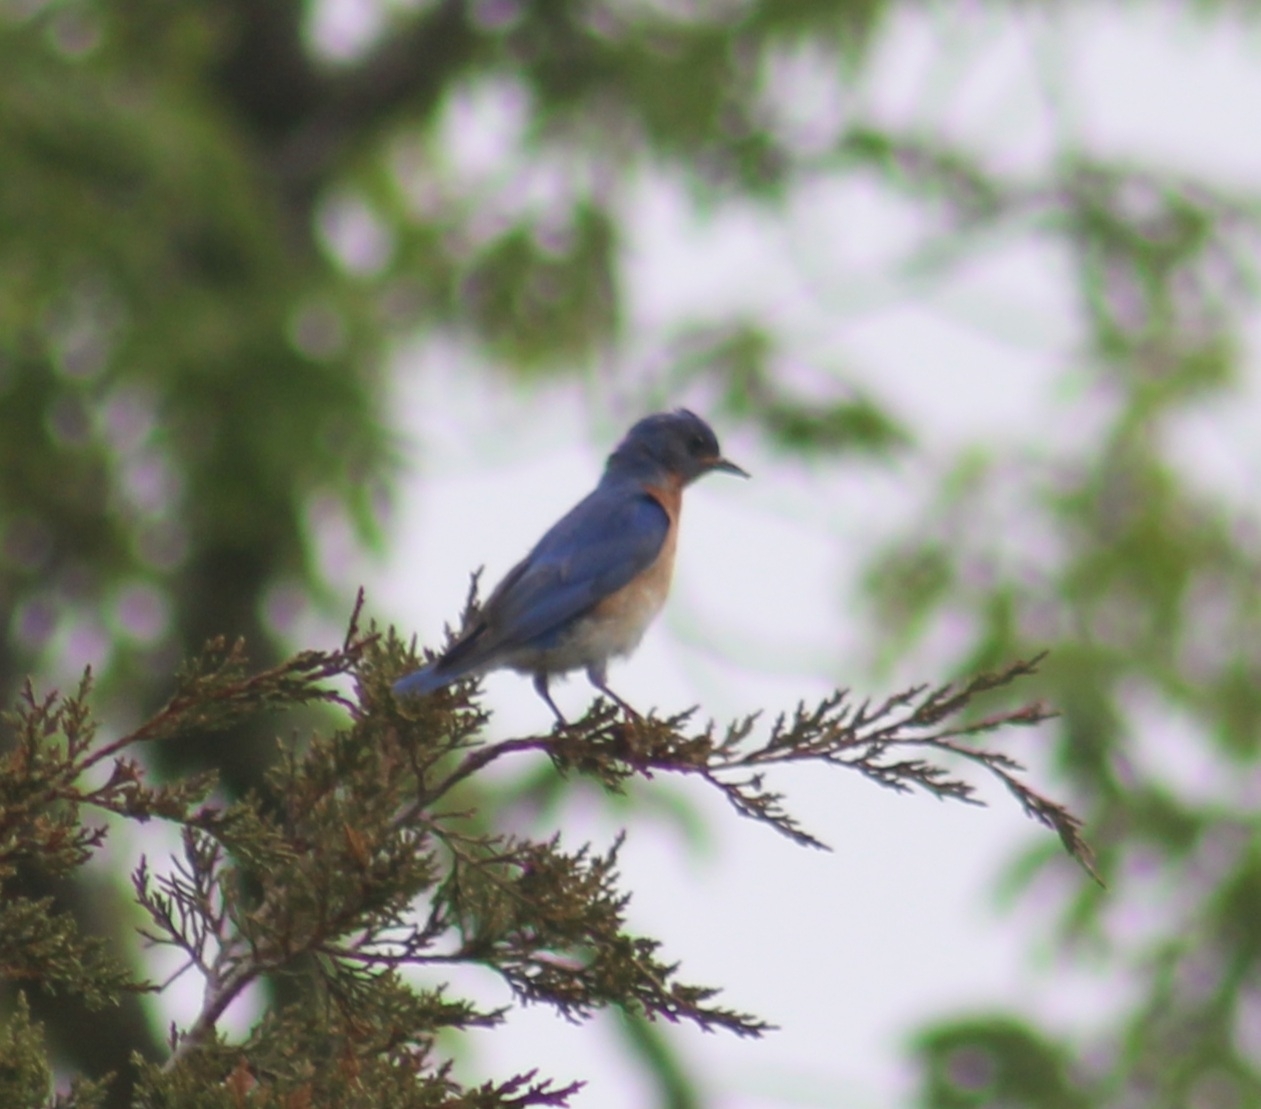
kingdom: Animalia
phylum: Chordata
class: Aves
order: Passeriformes
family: Turdidae
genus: Sialia
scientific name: Sialia sialis
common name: Eastern bluebird
